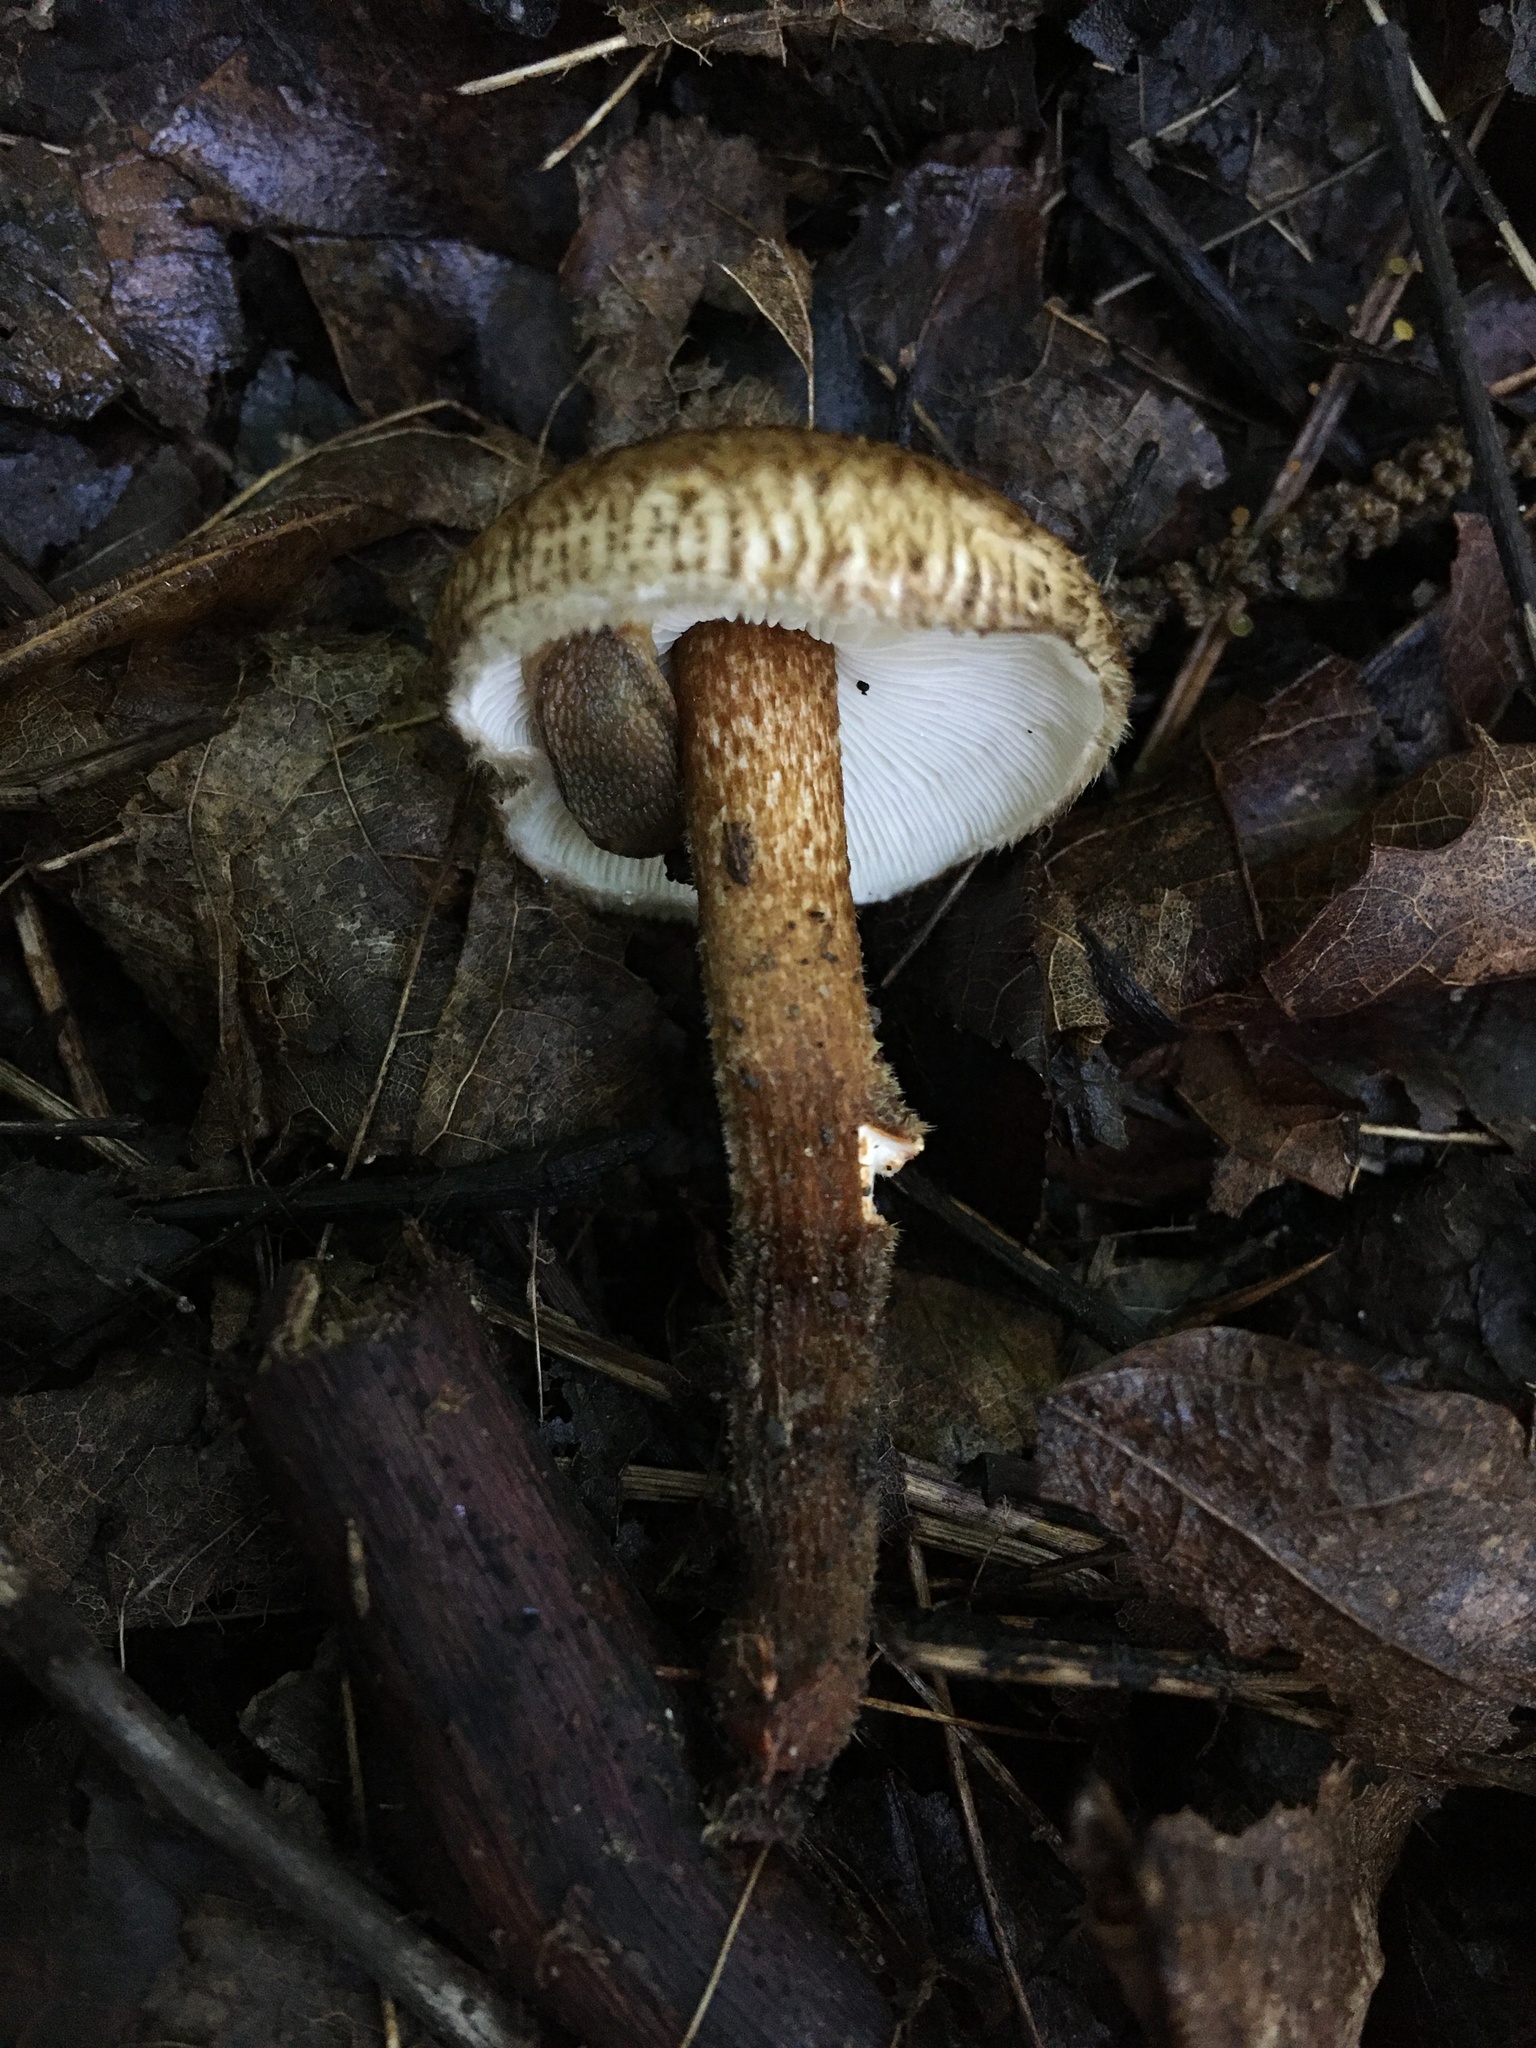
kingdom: Fungi
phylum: Basidiomycota
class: Agaricomycetes
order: Agaricales
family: Tricholomataceae
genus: Collybia
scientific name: Collybia zonata
